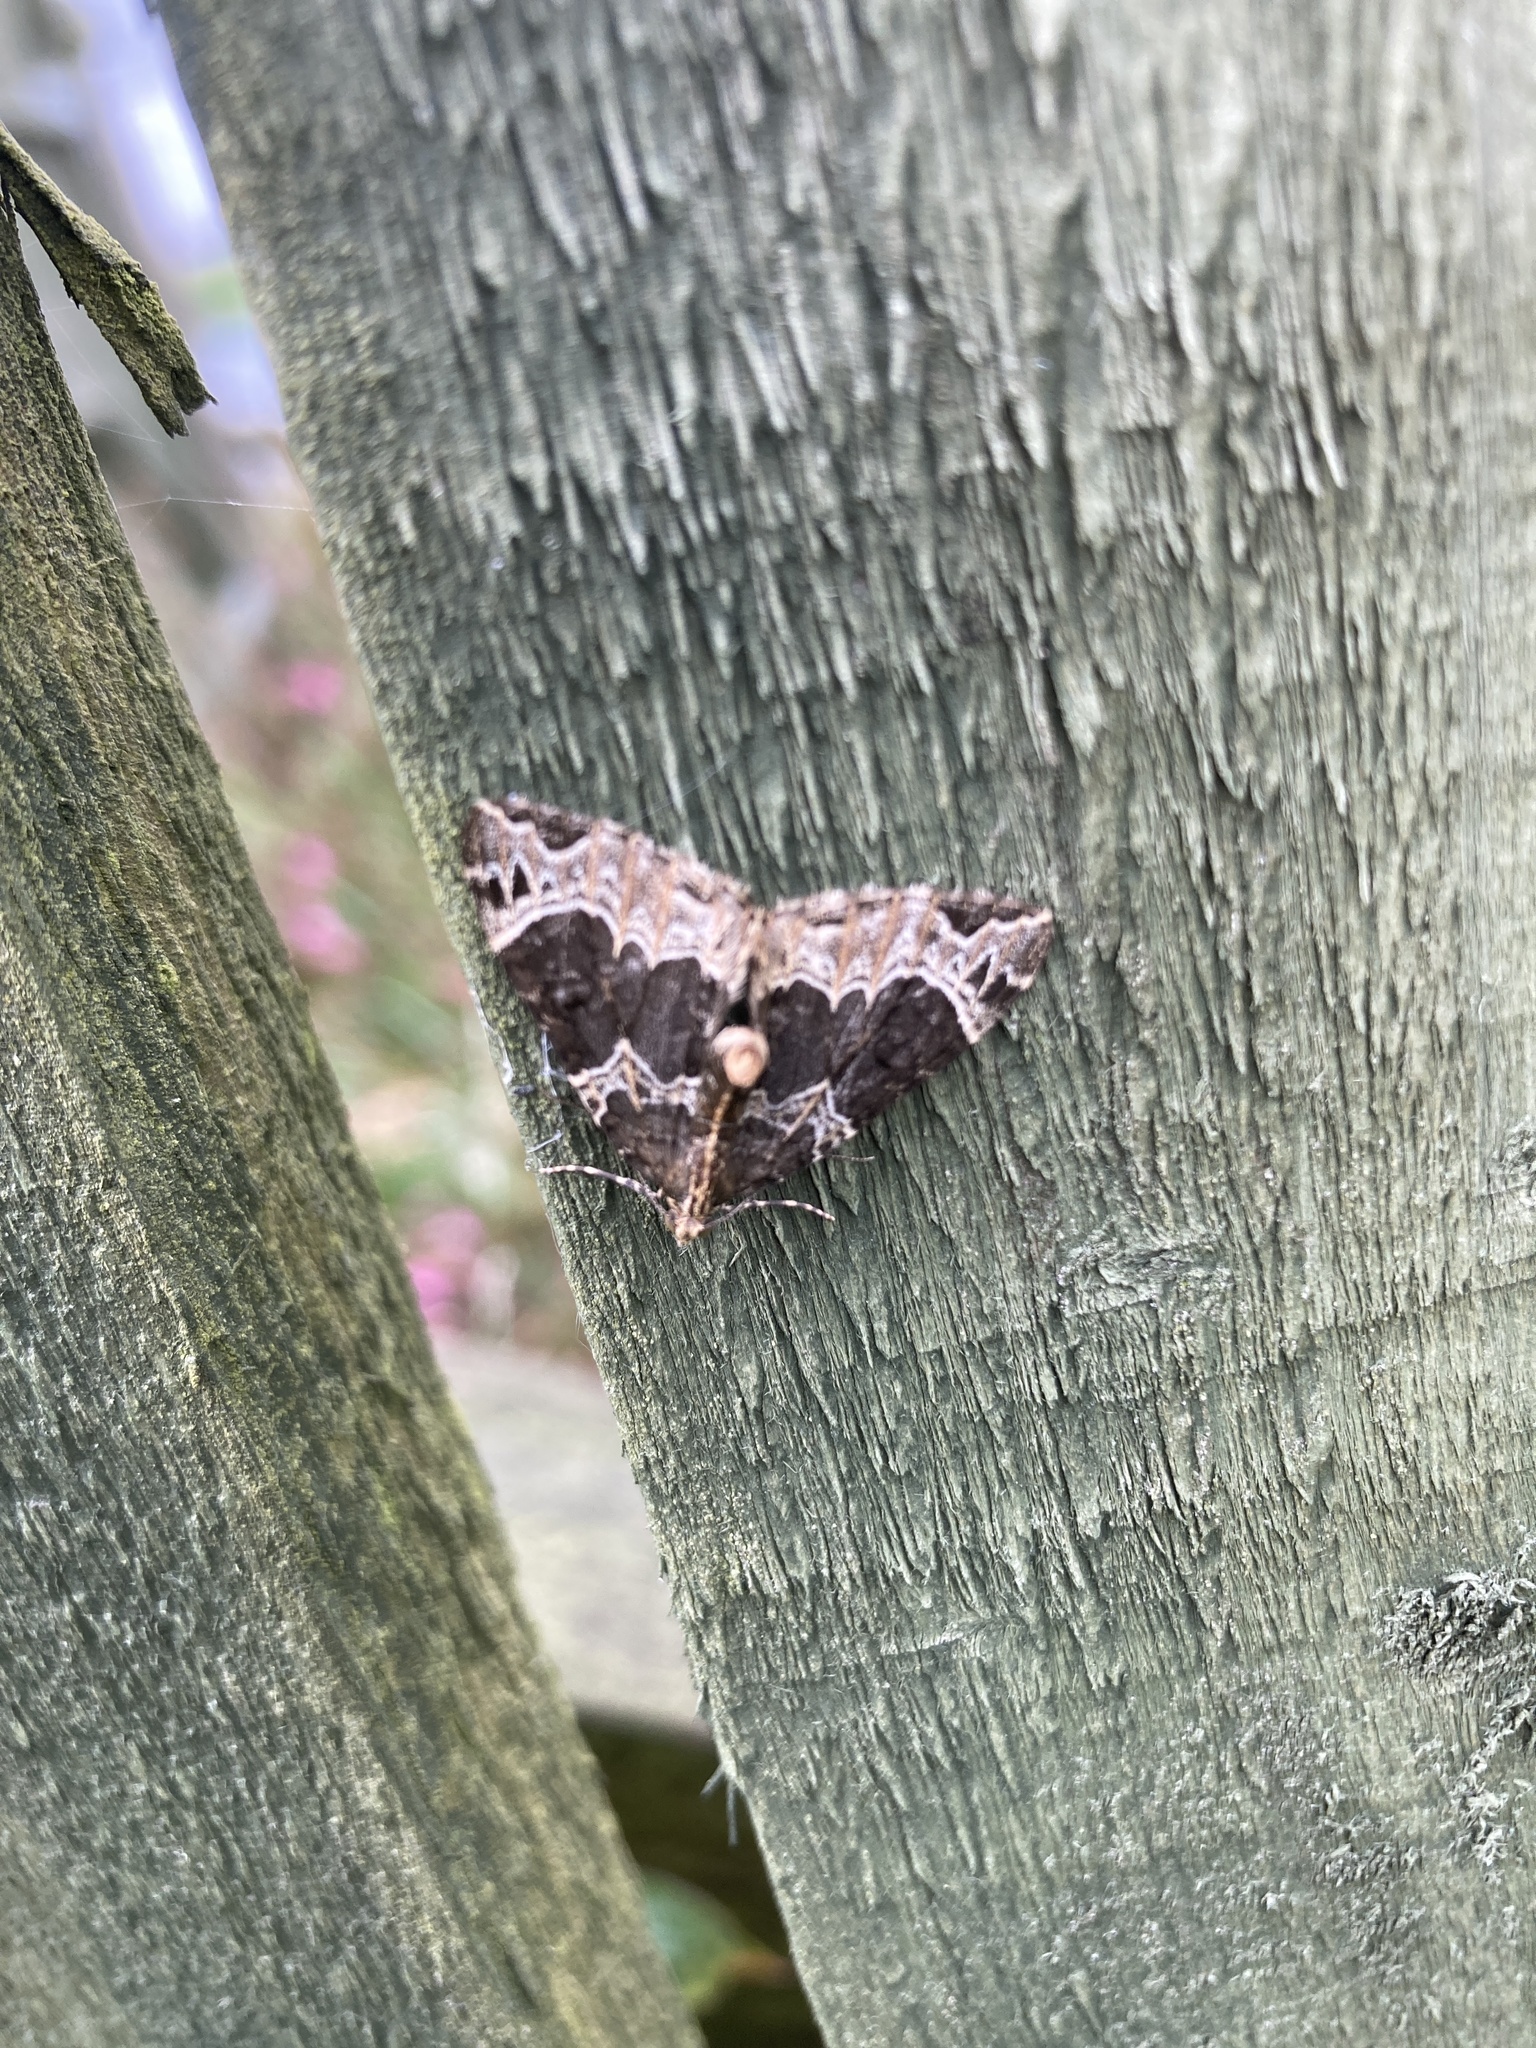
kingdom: Animalia
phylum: Arthropoda
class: Insecta
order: Lepidoptera
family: Geometridae
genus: Ecliptopera
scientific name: Ecliptopera silaceata
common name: Small phoenix
